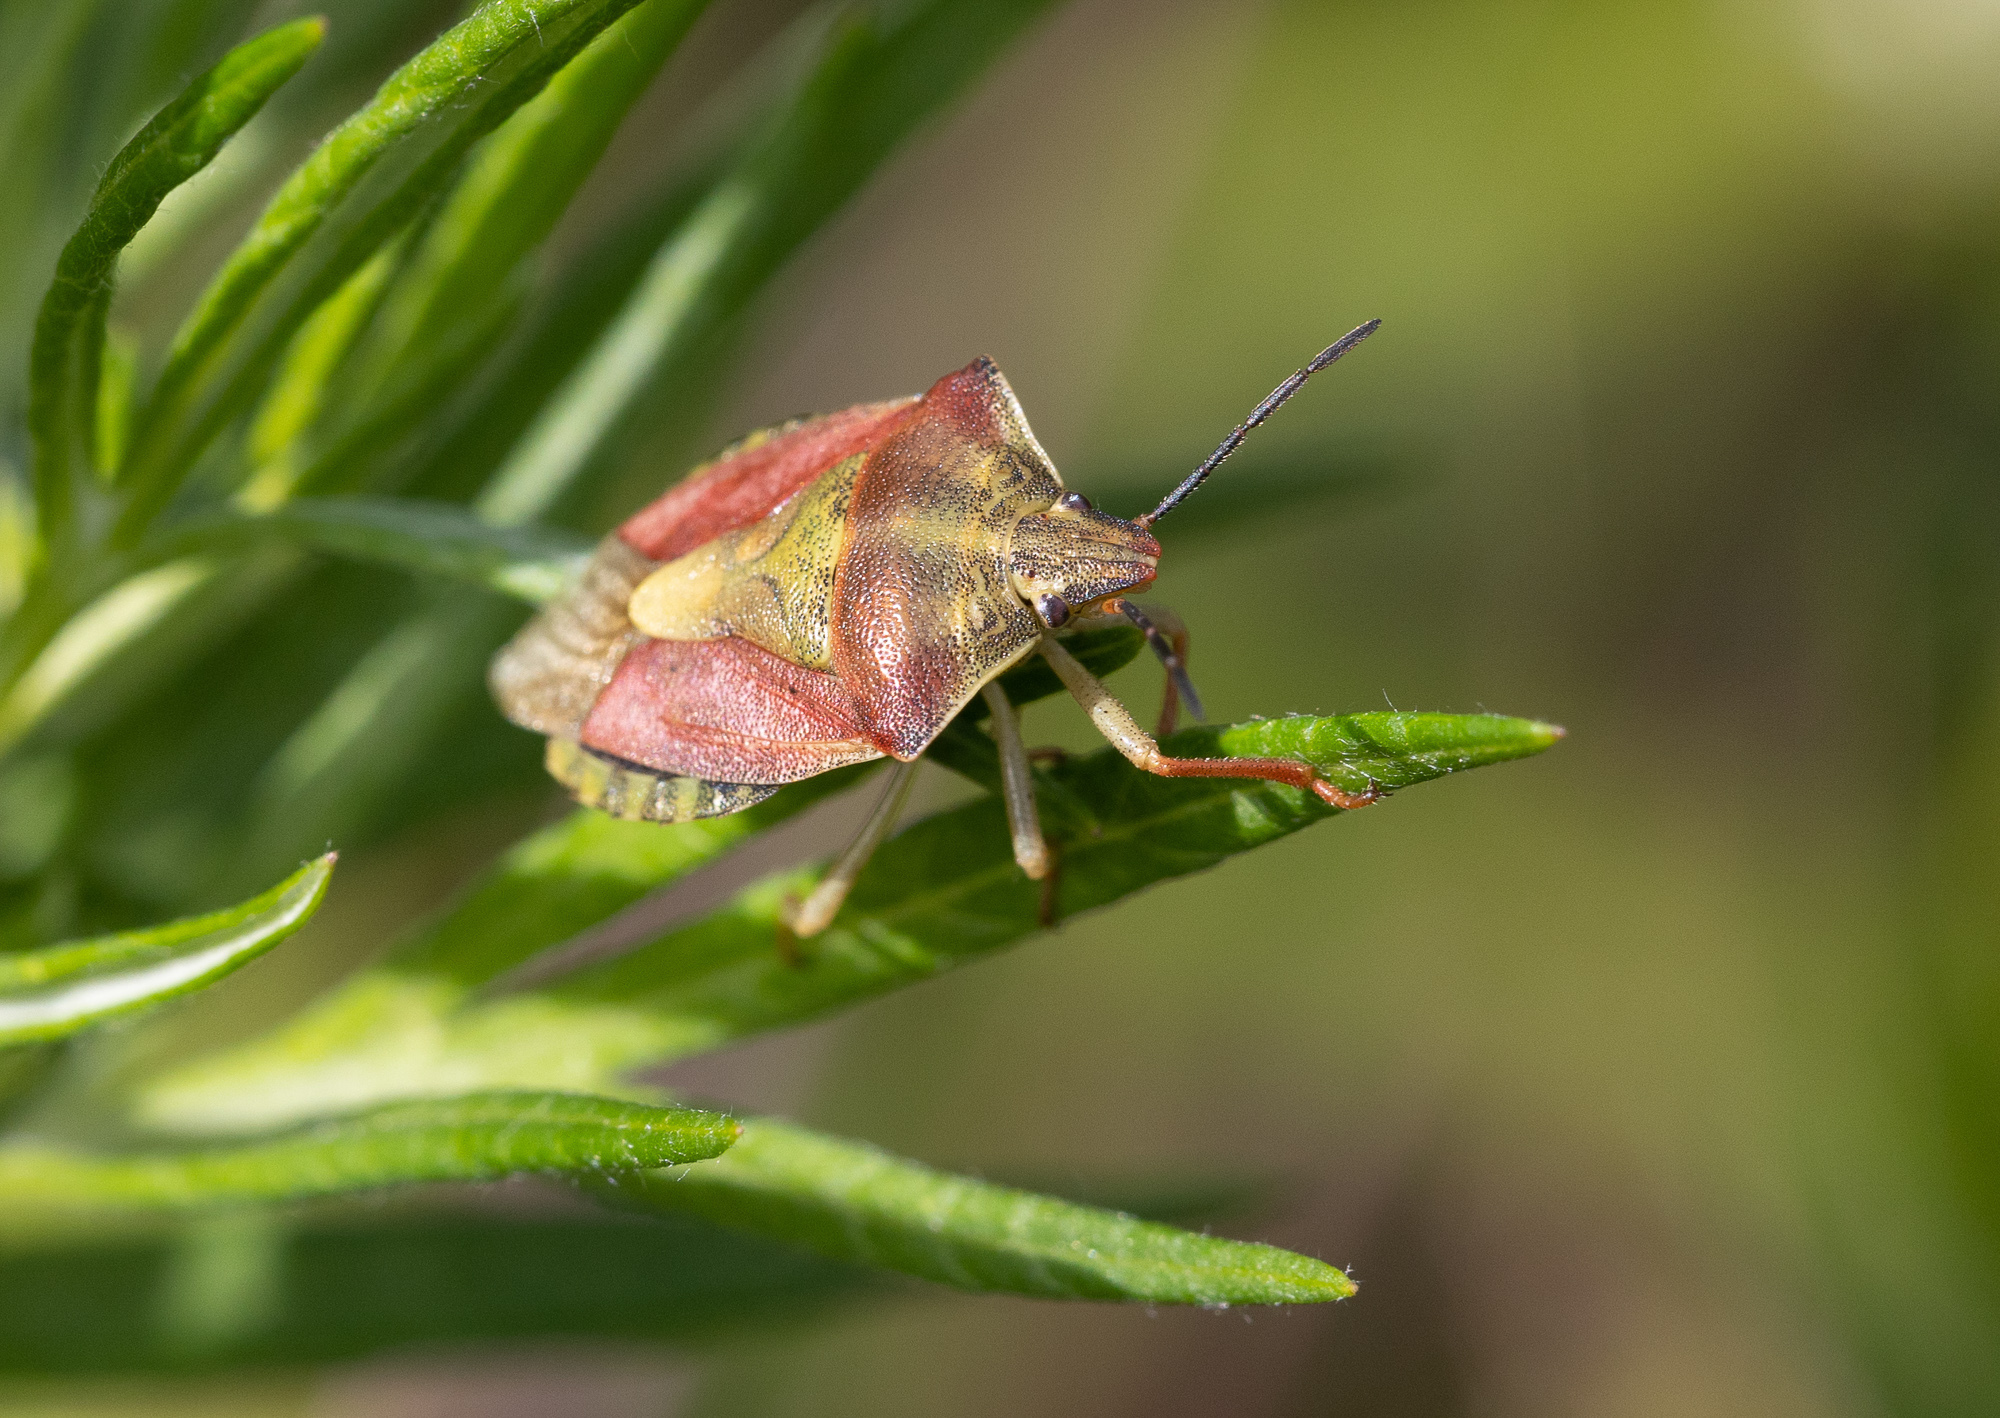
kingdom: Animalia
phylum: Arthropoda
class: Insecta
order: Hemiptera
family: Pentatomidae
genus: Carpocoris
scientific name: Carpocoris purpureipennis
